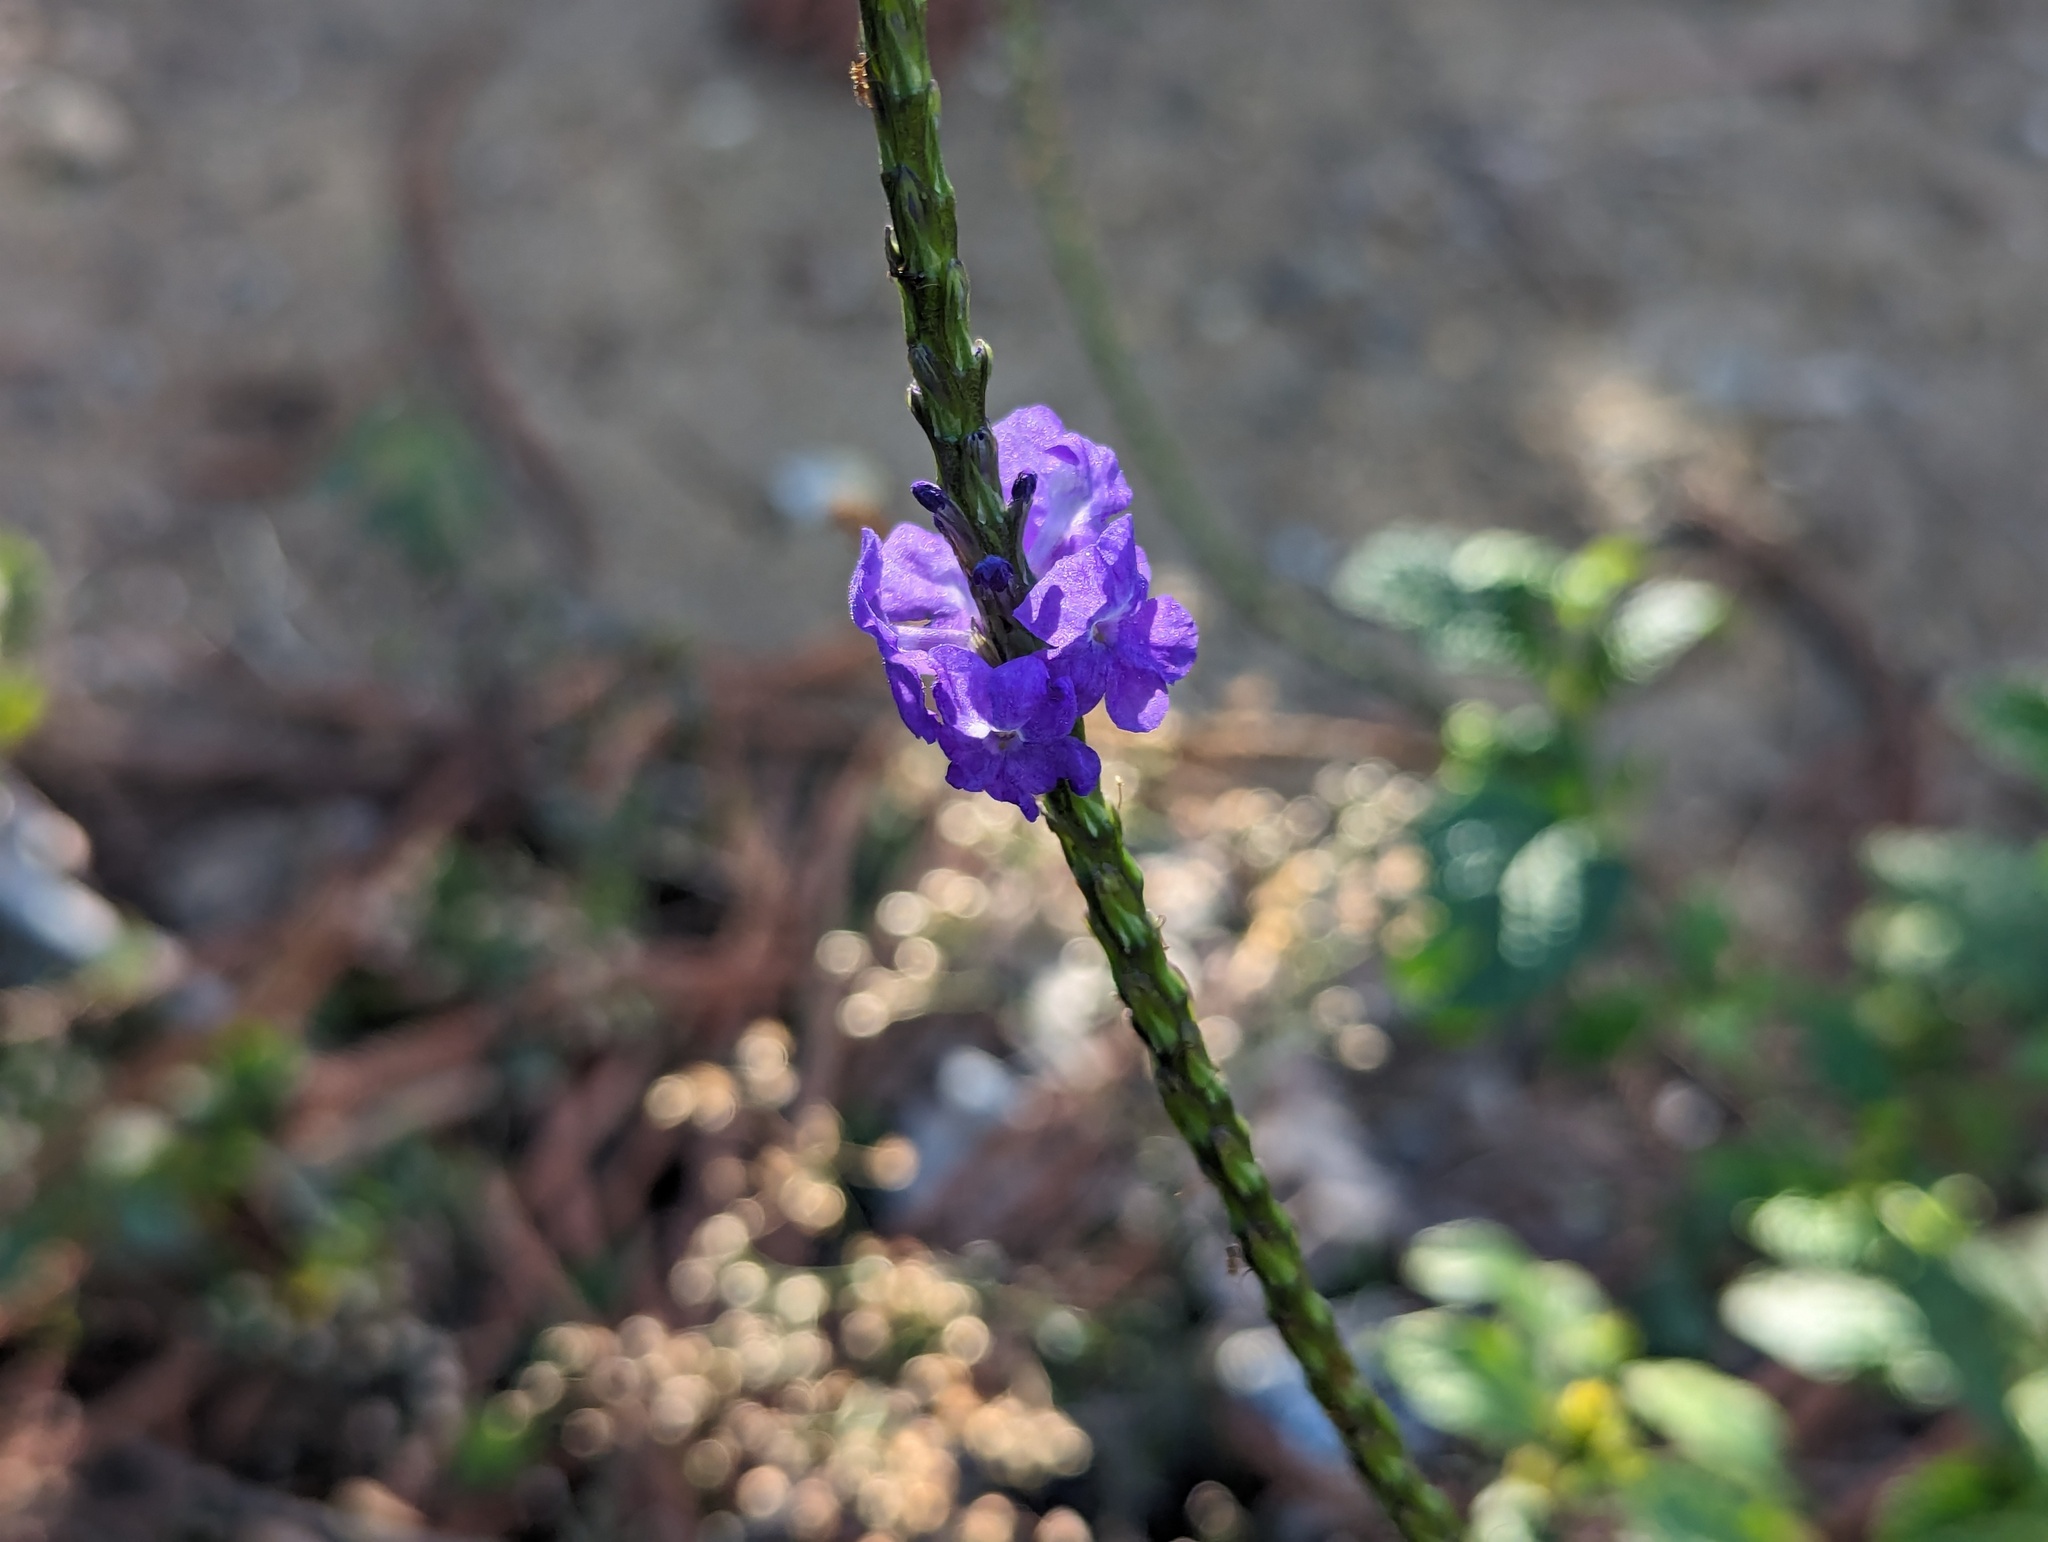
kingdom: Plantae
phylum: Tracheophyta
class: Magnoliopsida
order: Lamiales
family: Verbenaceae
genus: Stachytarpheta
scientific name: Stachytarpheta urticifolia
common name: Nettleleaf velvetberry
